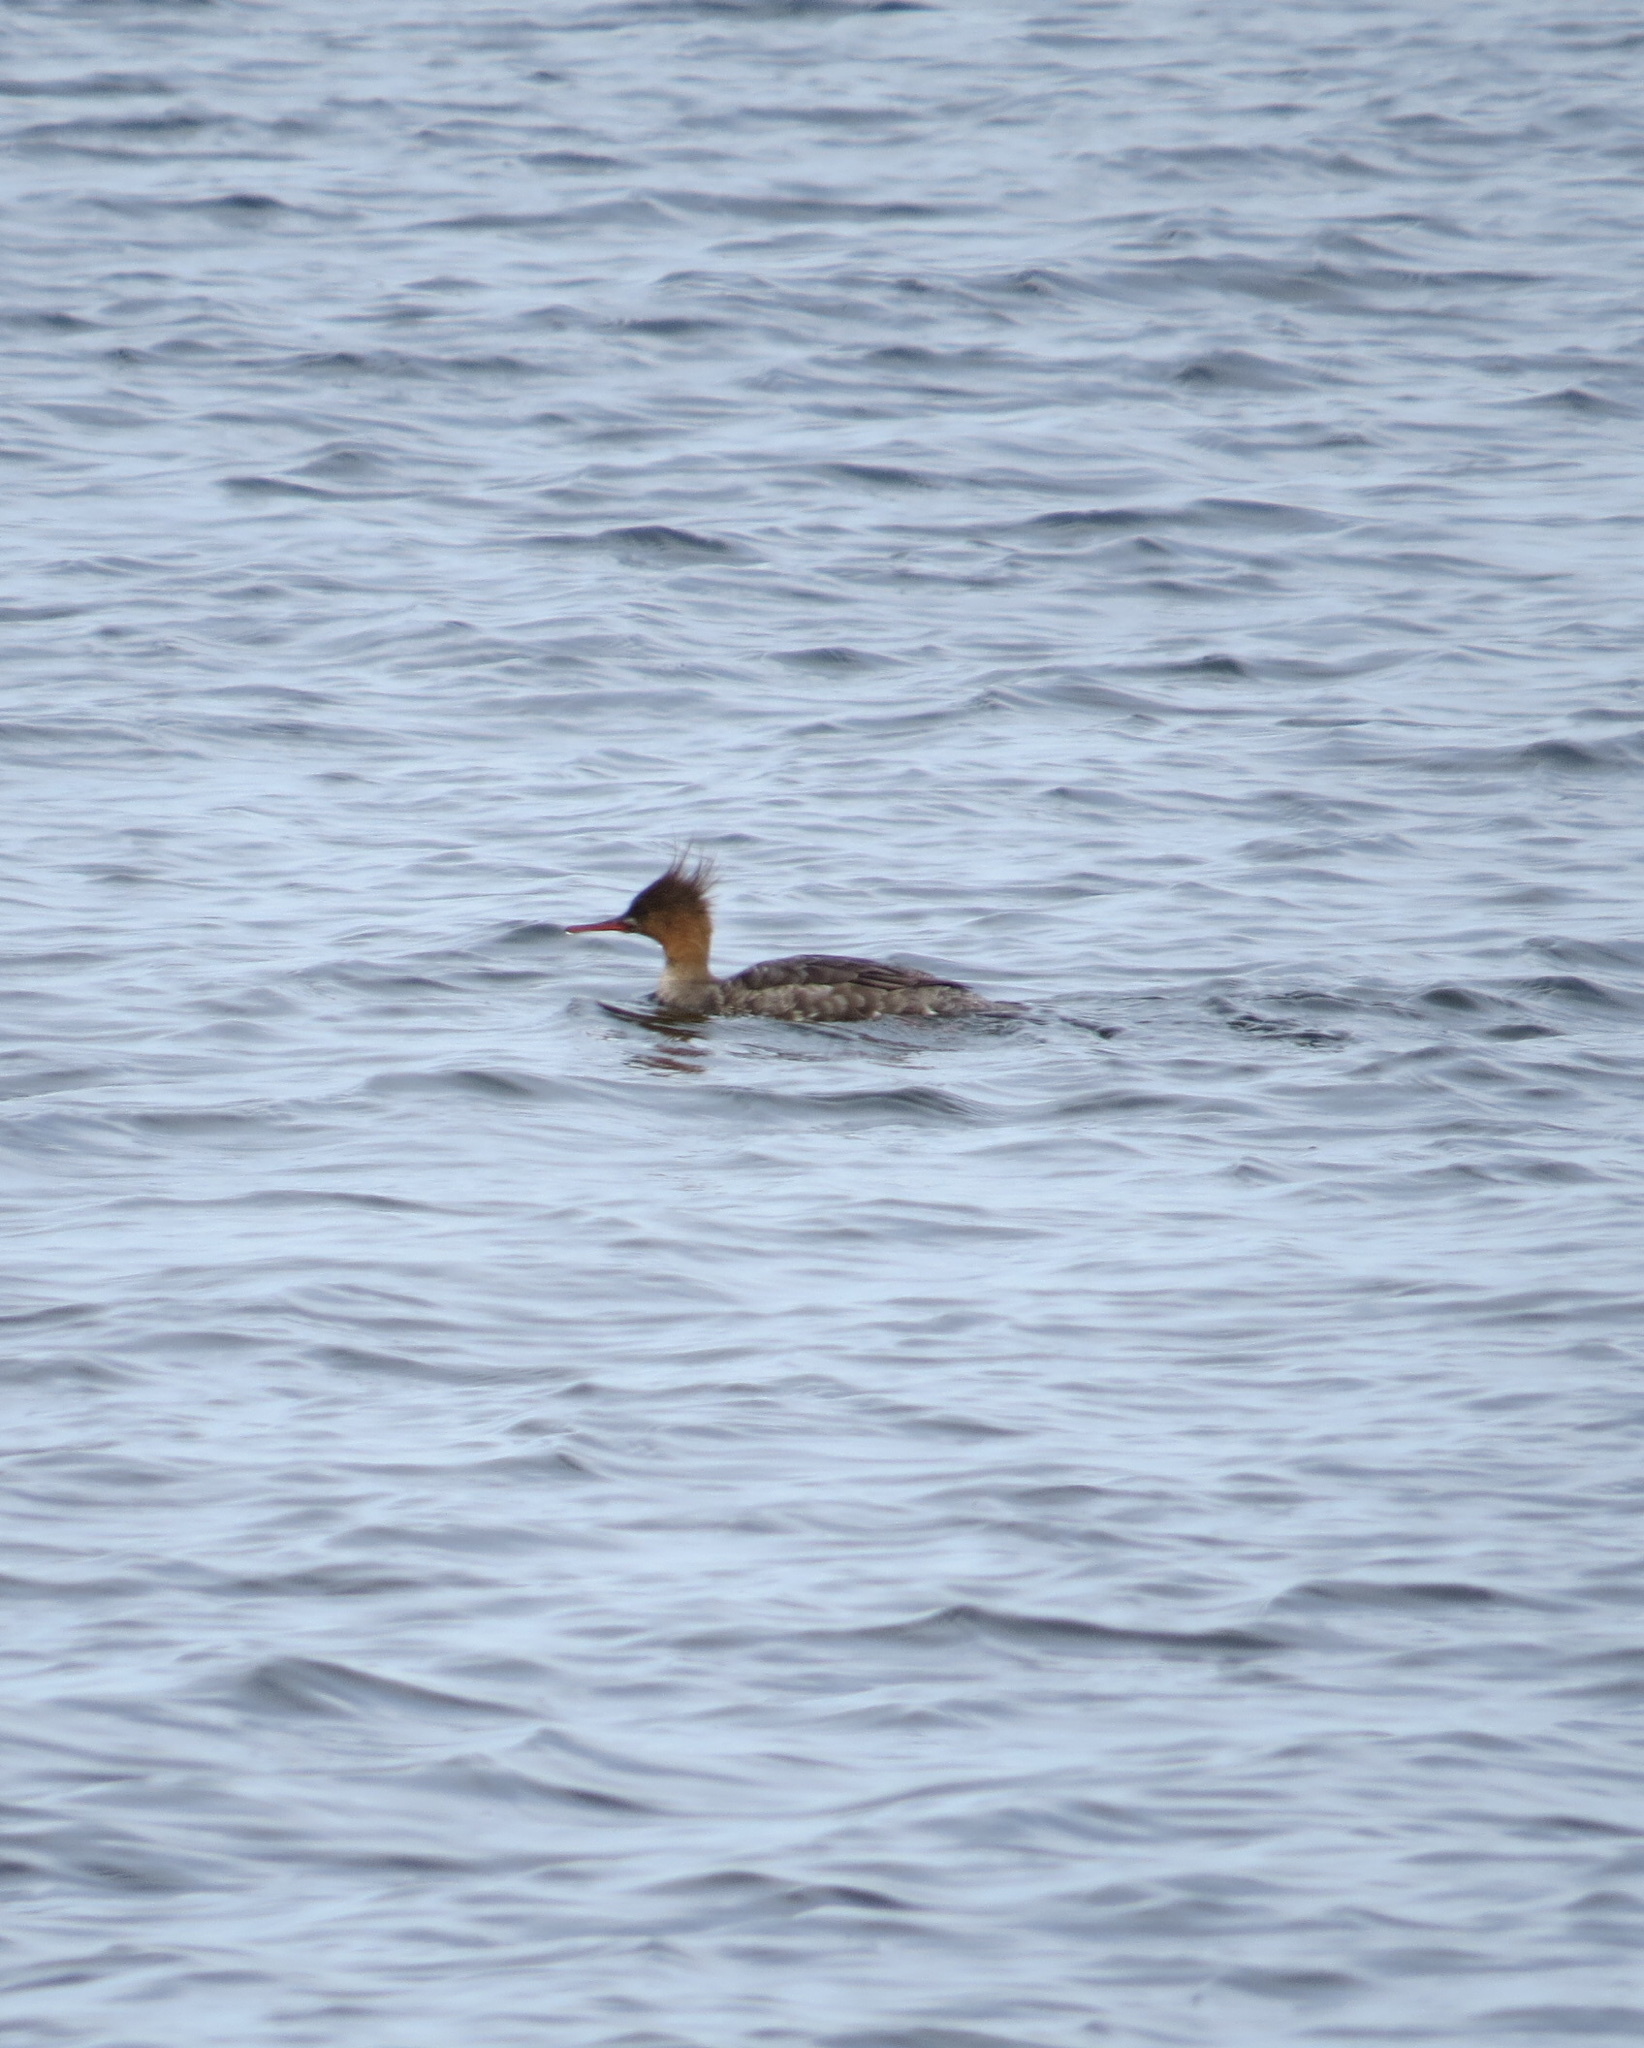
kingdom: Animalia
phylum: Chordata
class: Aves
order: Anseriformes
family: Anatidae
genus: Mergus
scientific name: Mergus serrator
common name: Red-breasted merganser
